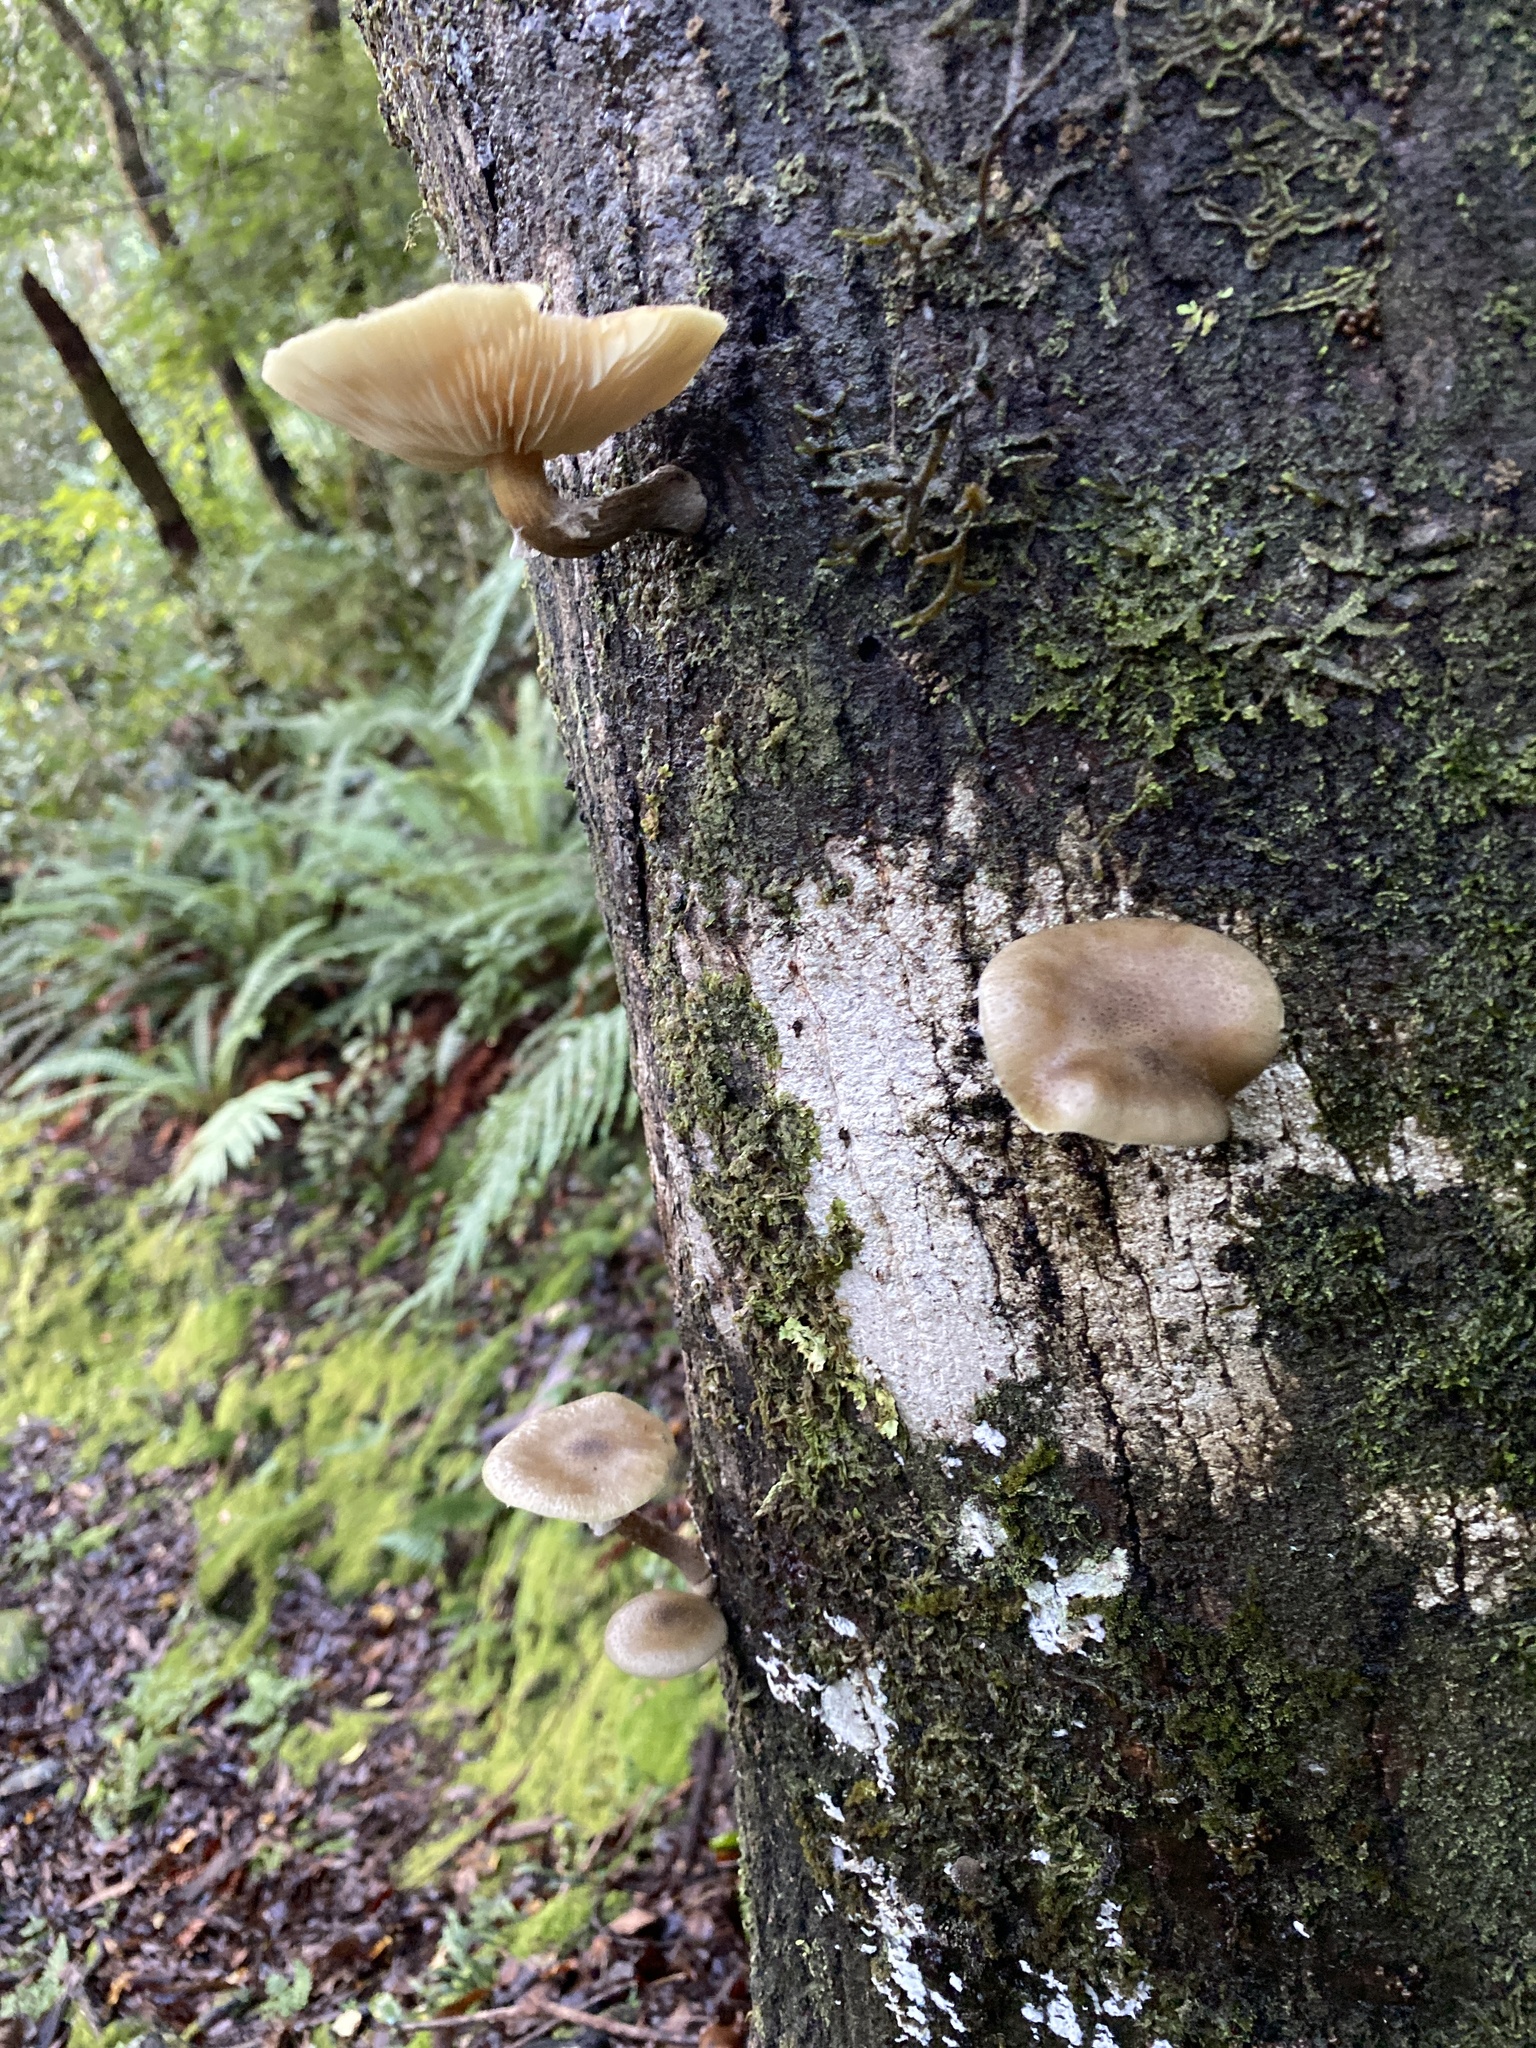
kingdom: Fungi
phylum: Basidiomycota
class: Agaricomycetes
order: Agaricales
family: Physalacriaceae
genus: Armillaria
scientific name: Armillaria novae-zelandiae
